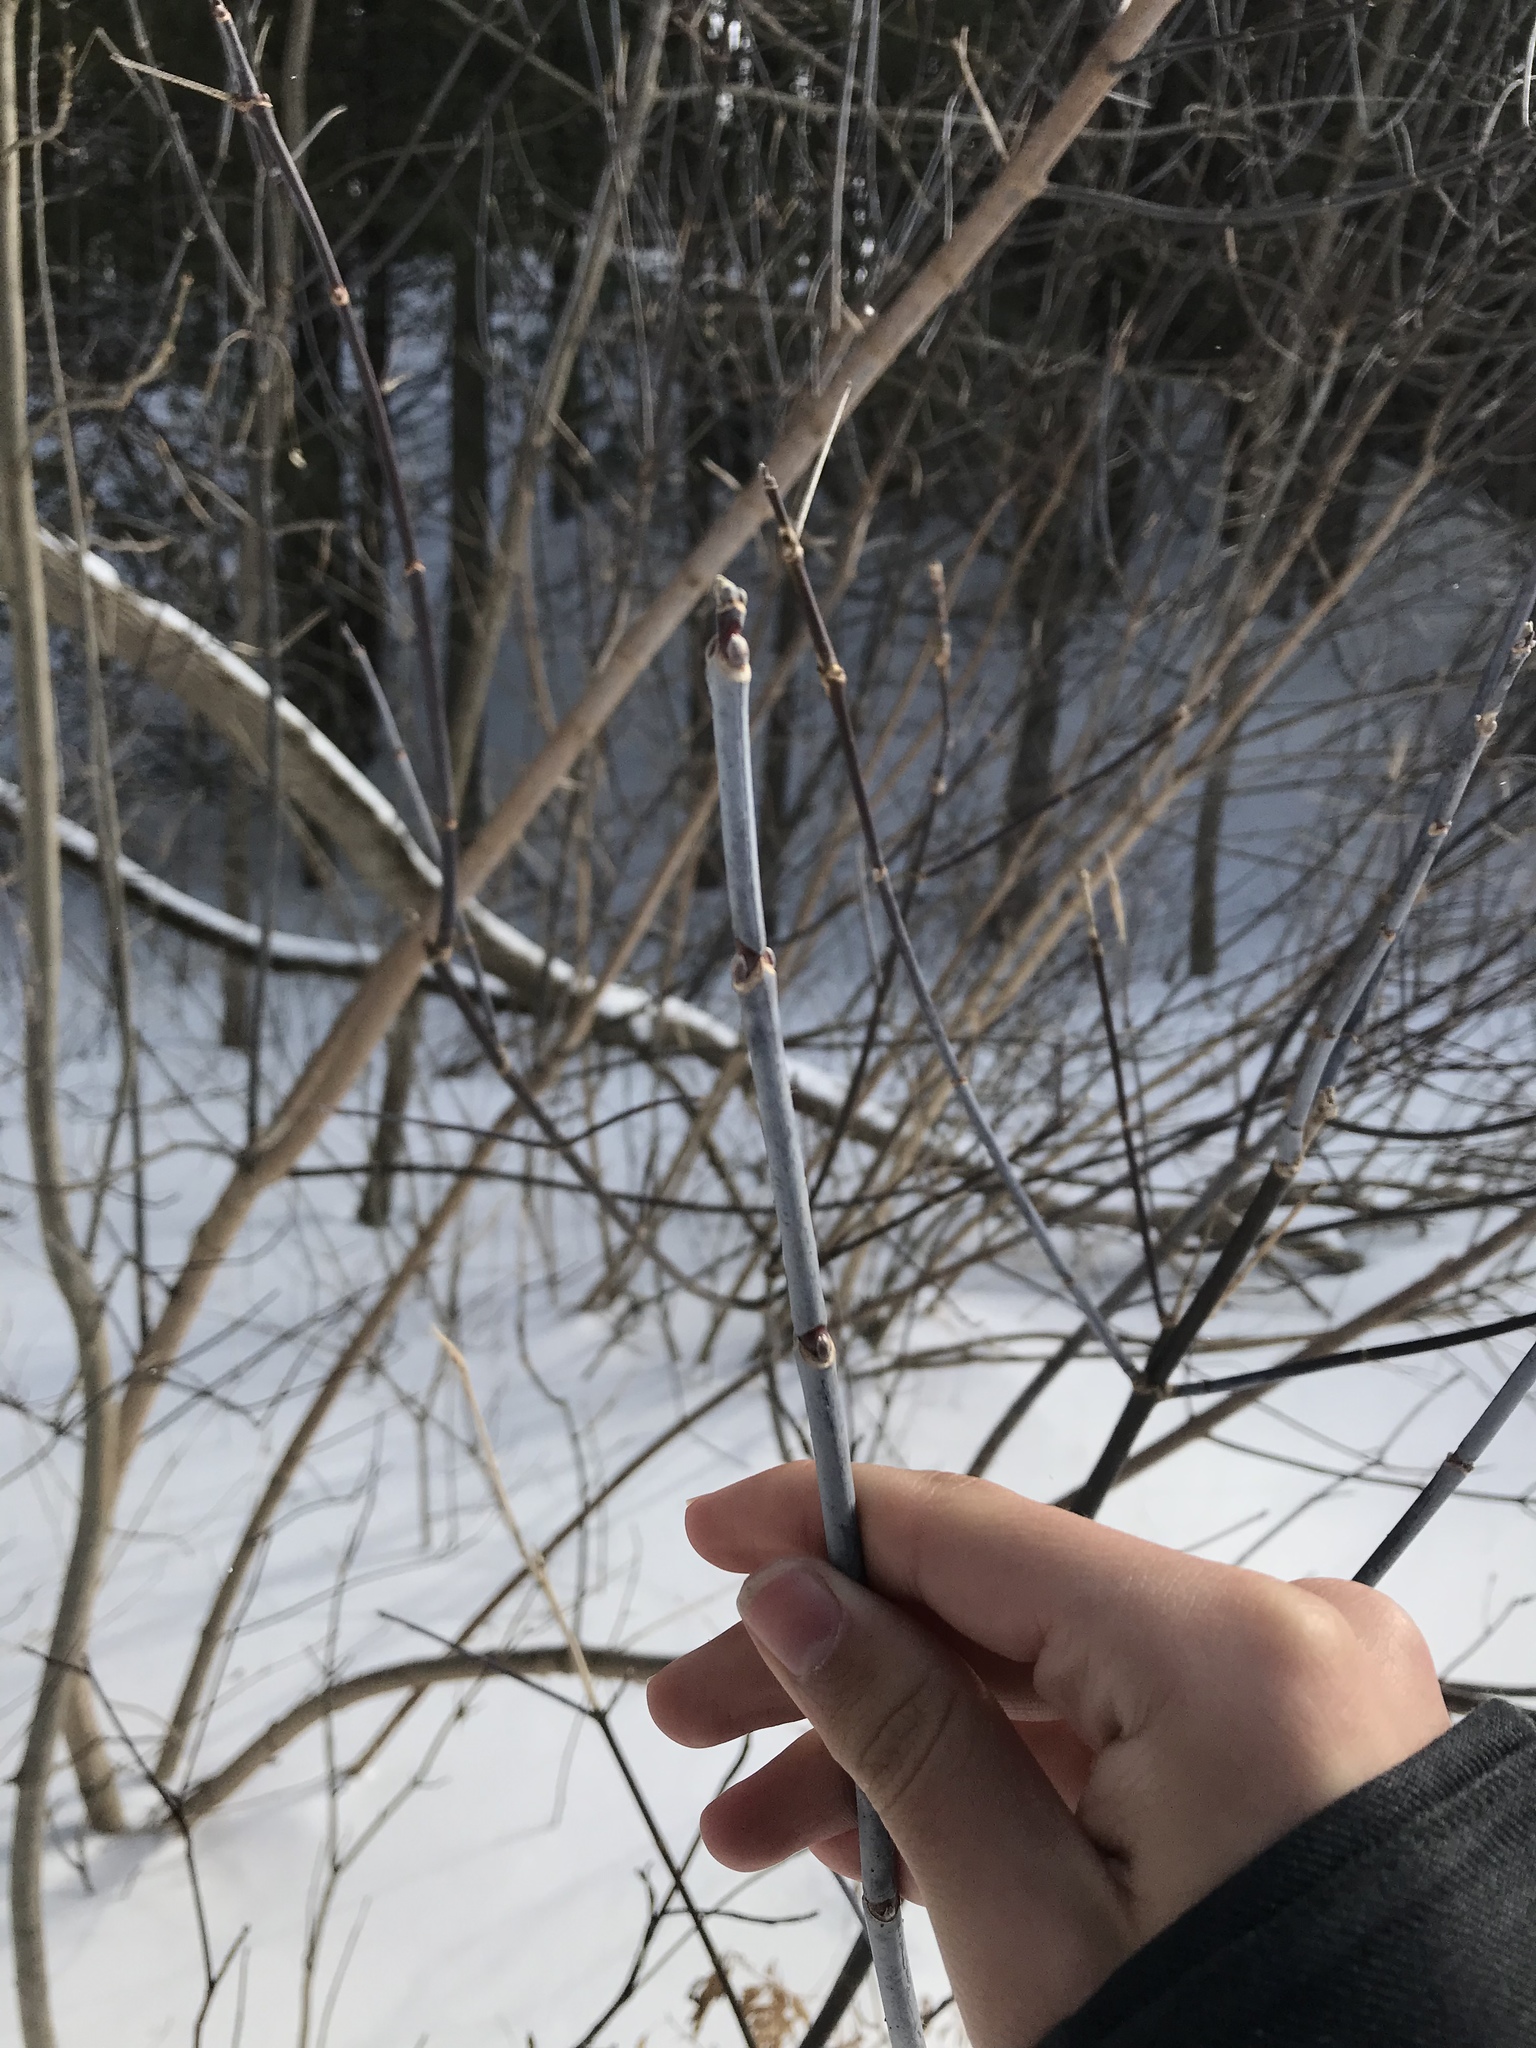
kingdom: Plantae
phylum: Tracheophyta
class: Magnoliopsida
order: Sapindales
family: Sapindaceae
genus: Acer
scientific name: Acer negundo
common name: Ashleaf maple
